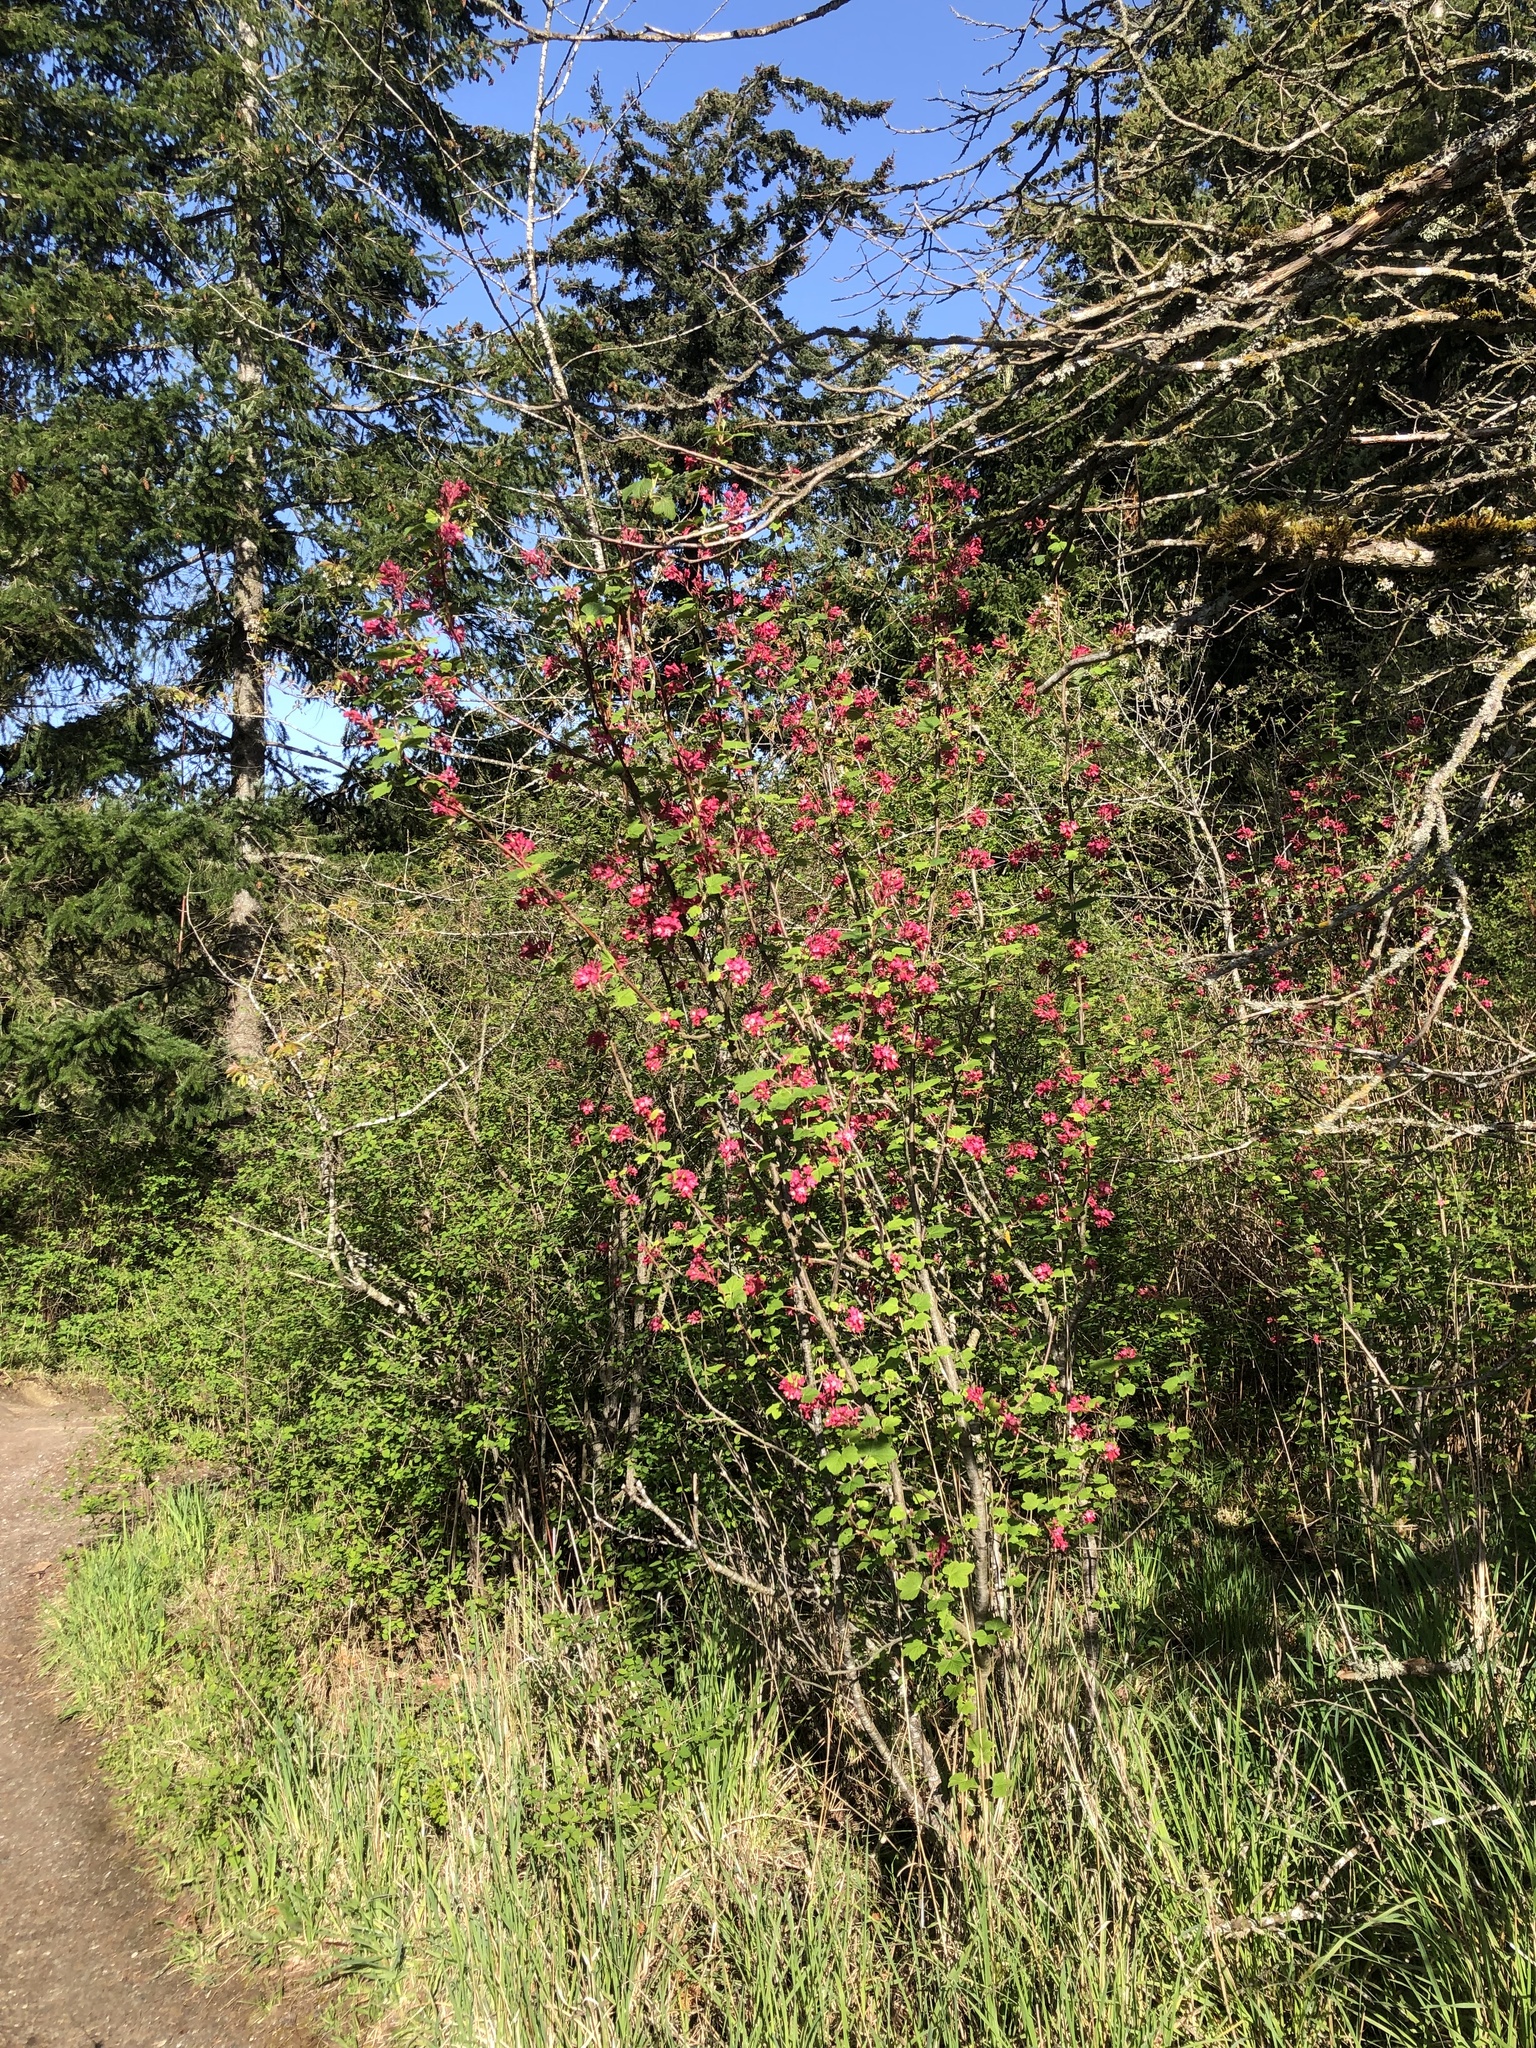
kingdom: Plantae
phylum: Tracheophyta
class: Magnoliopsida
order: Saxifragales
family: Grossulariaceae
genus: Ribes
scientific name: Ribes sanguineum
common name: Flowering currant
